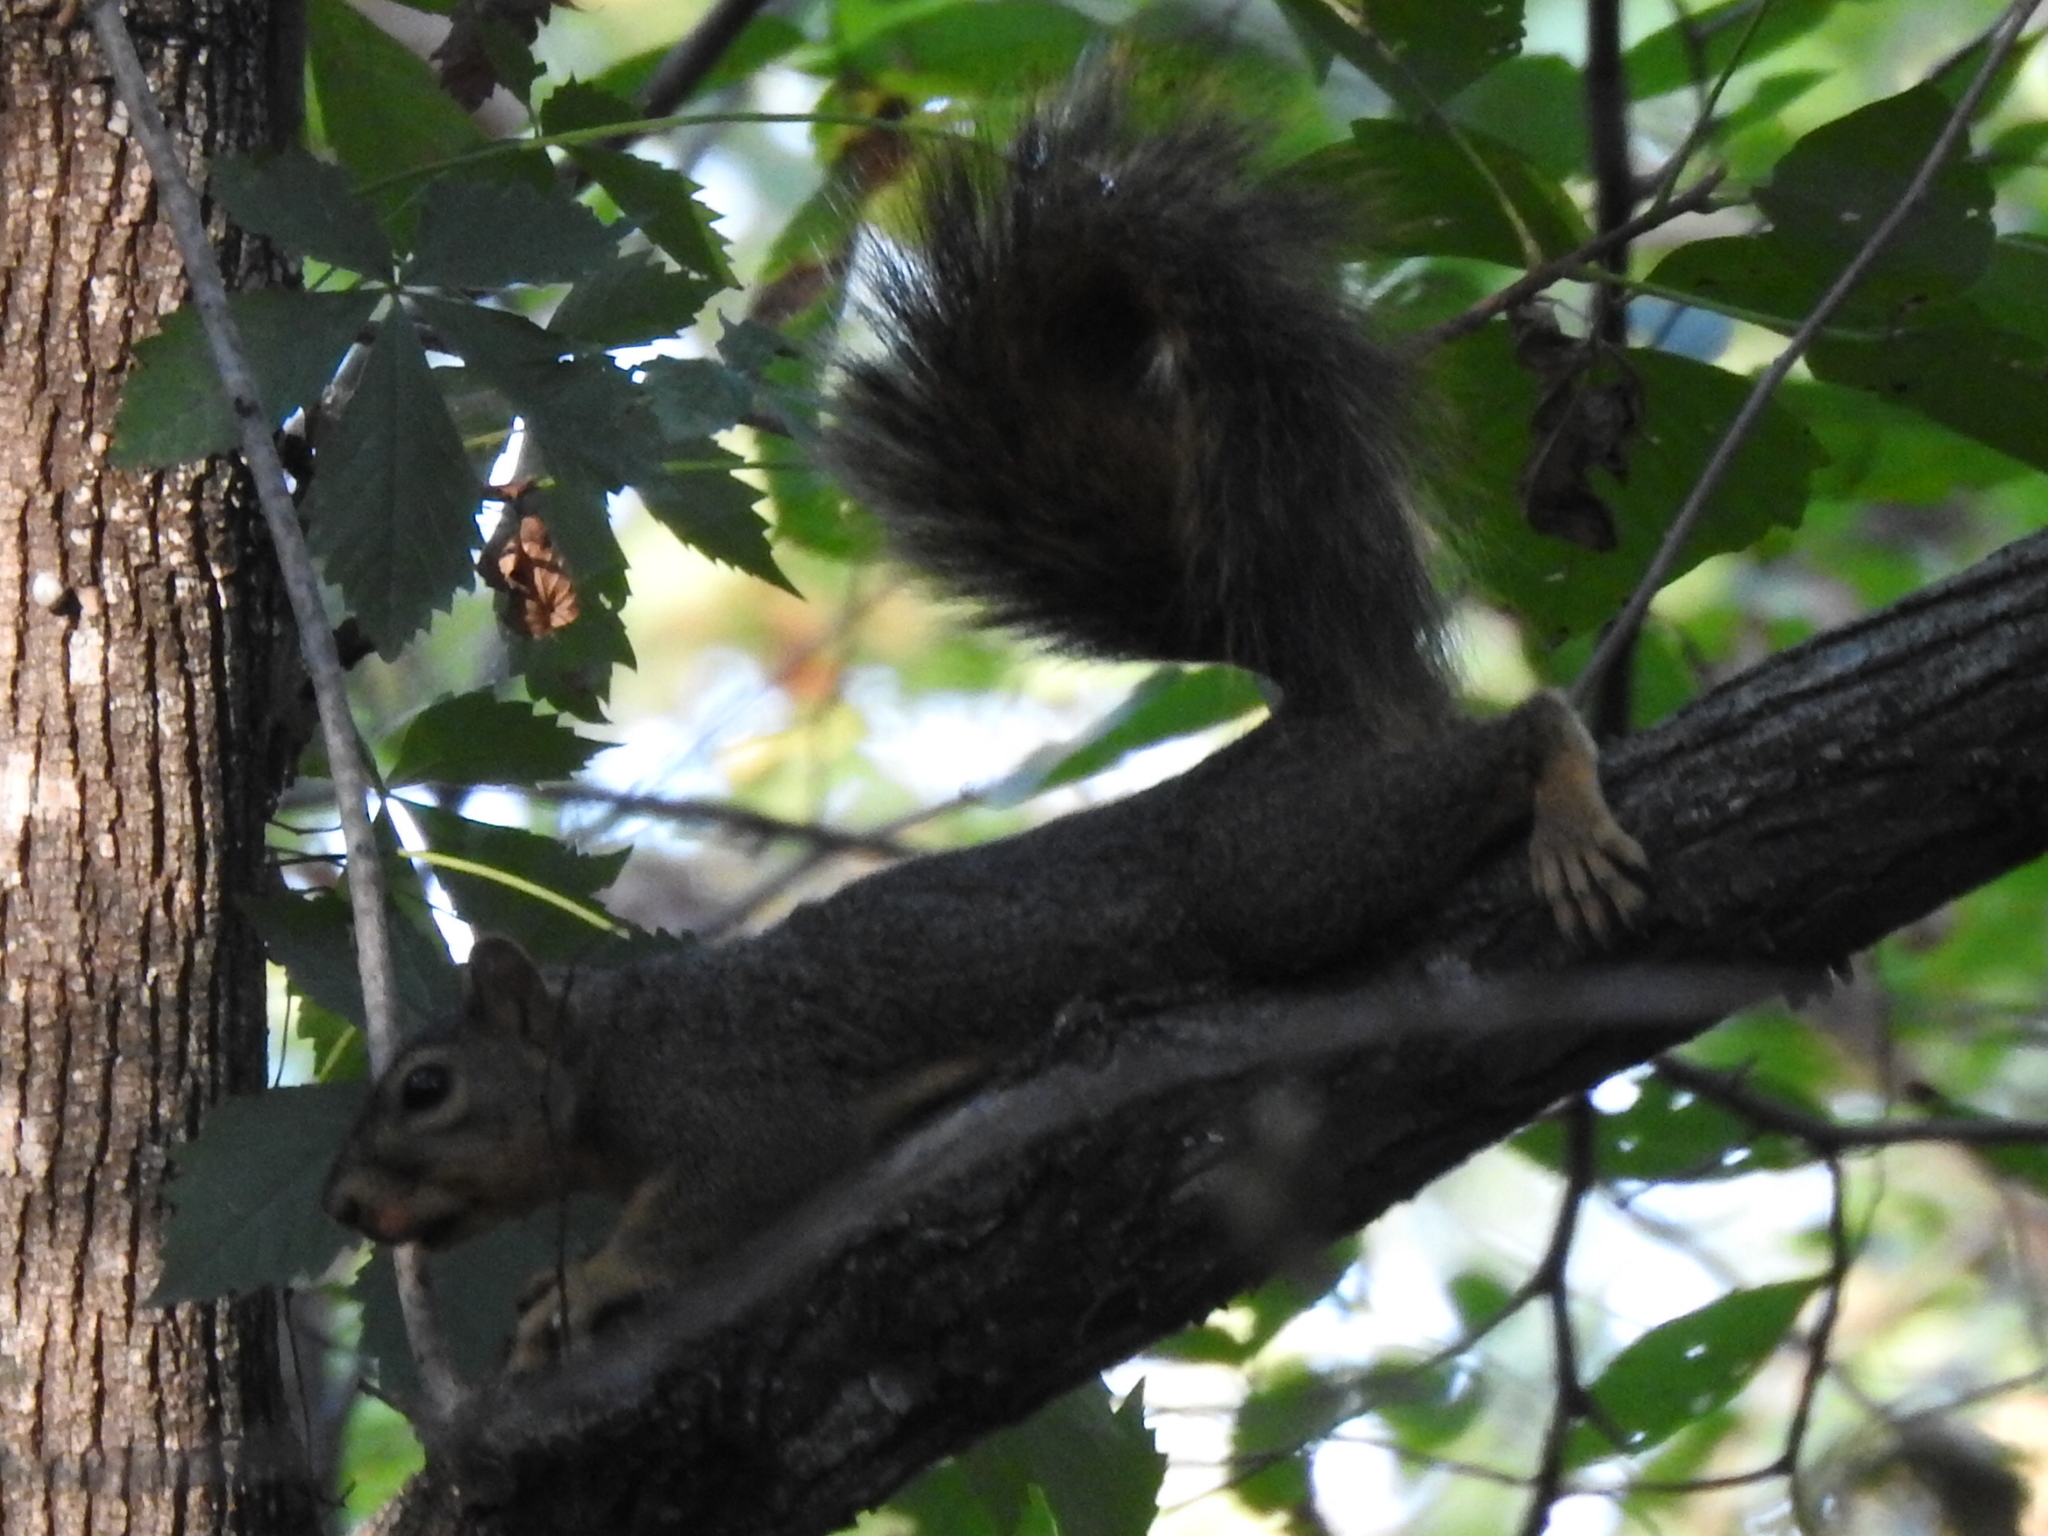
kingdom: Animalia
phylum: Chordata
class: Mammalia
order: Rodentia
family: Sciuridae
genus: Sciurus
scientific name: Sciurus niger
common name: Fox squirrel
